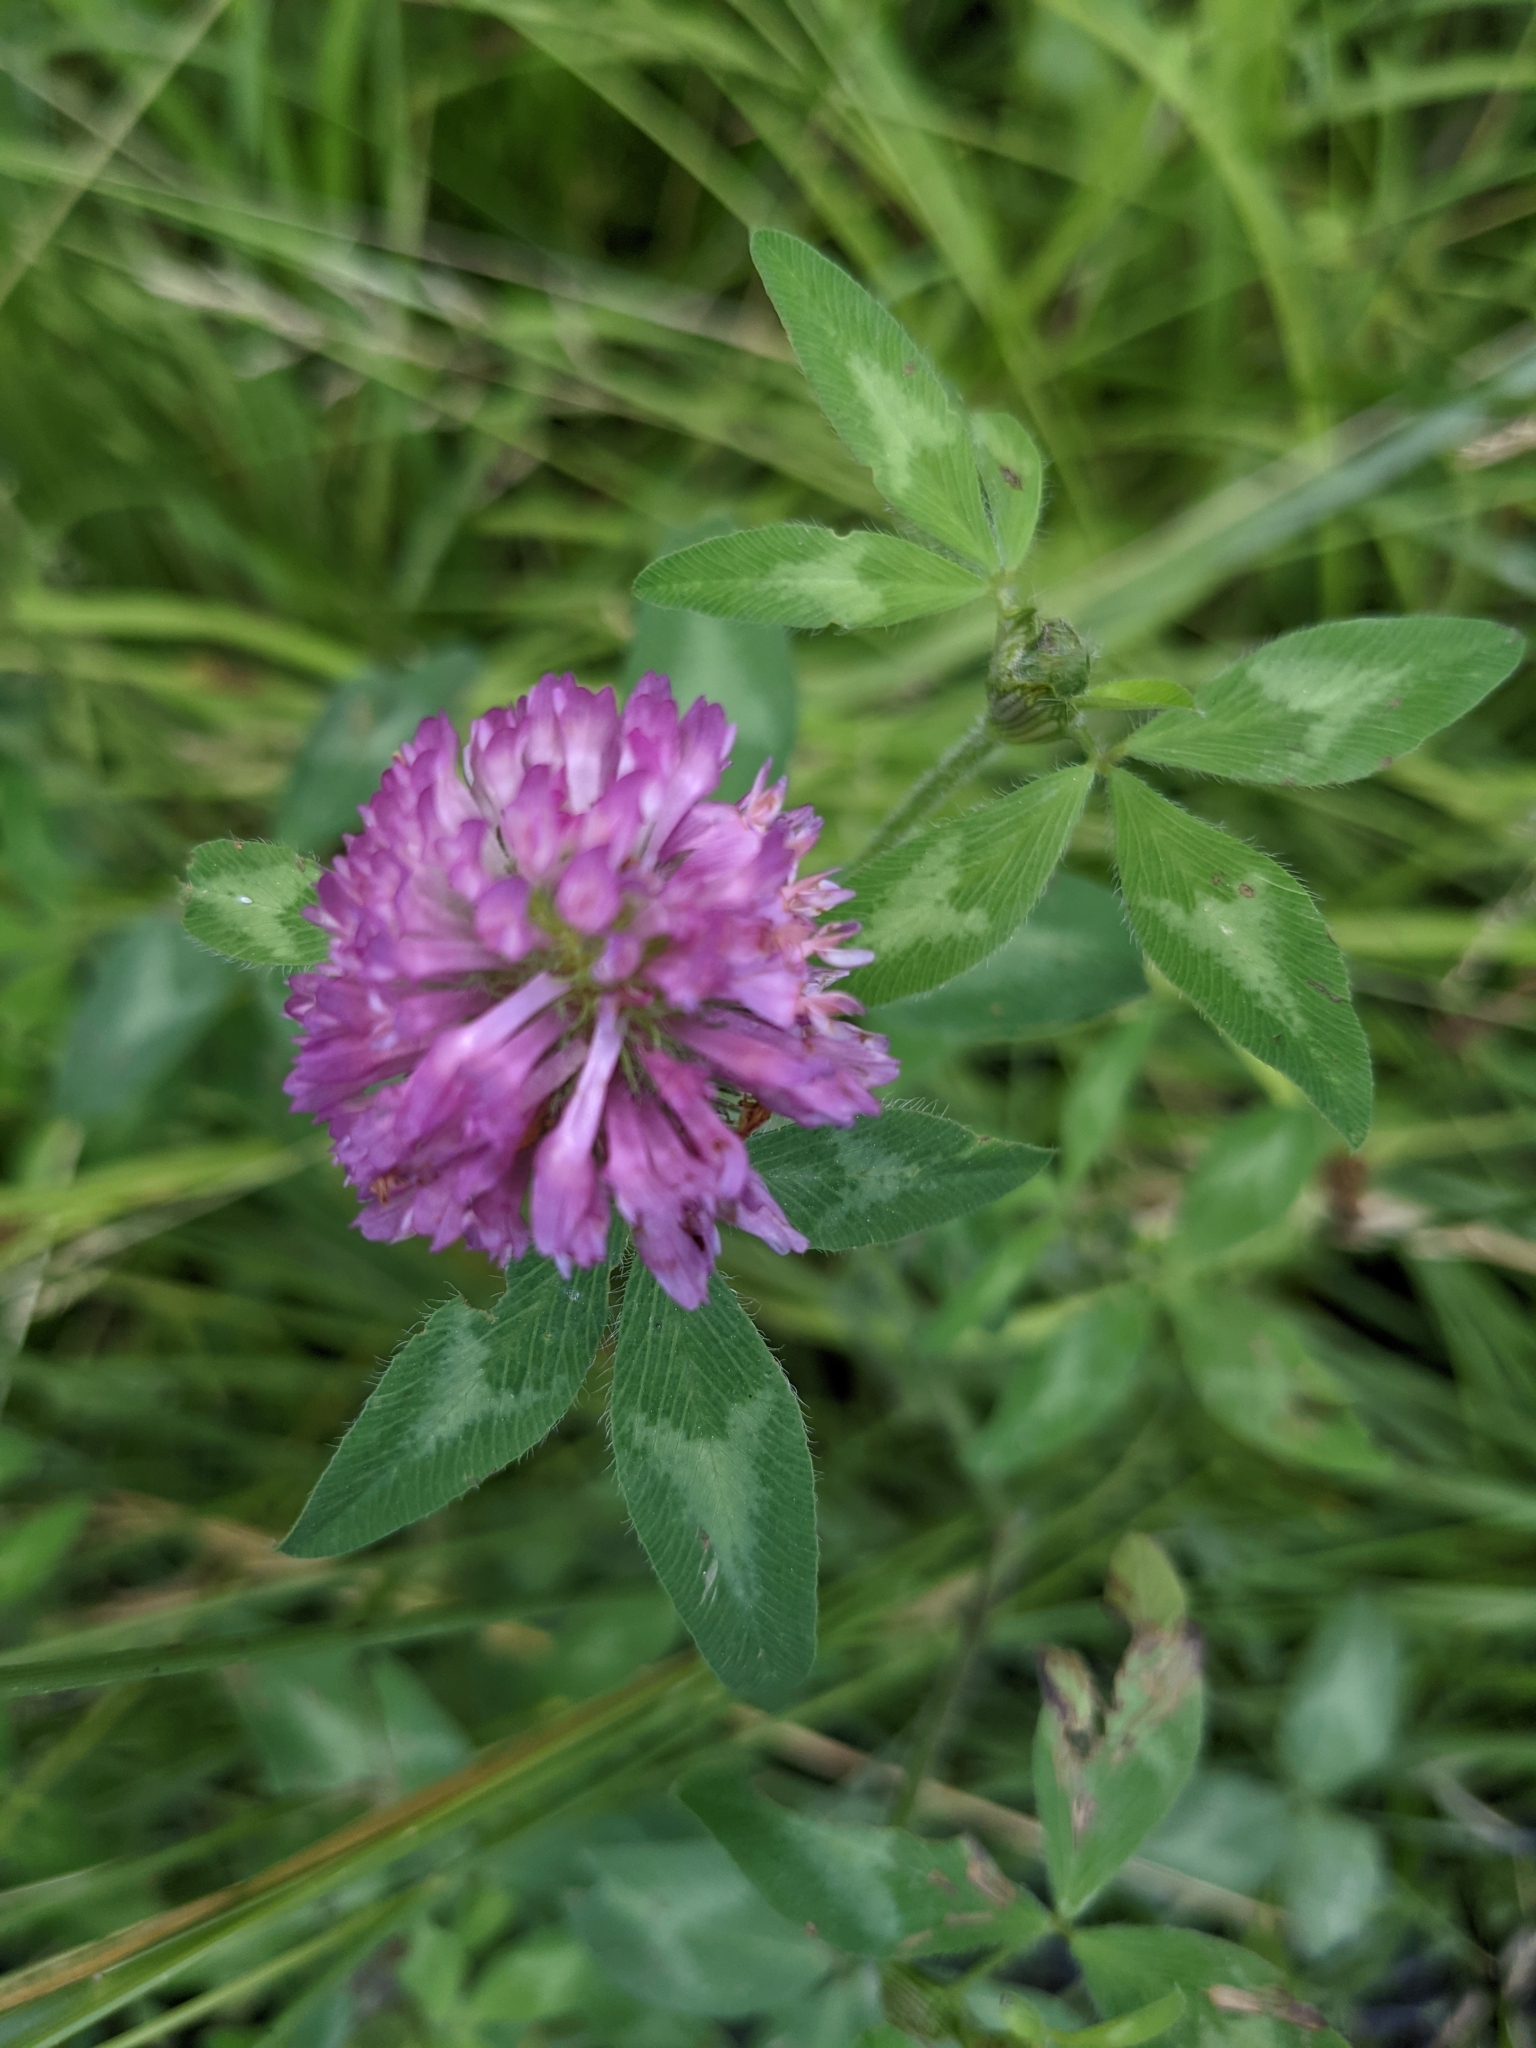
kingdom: Plantae
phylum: Tracheophyta
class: Magnoliopsida
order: Fabales
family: Fabaceae
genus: Trifolium
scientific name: Trifolium pratense
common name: Red clover
